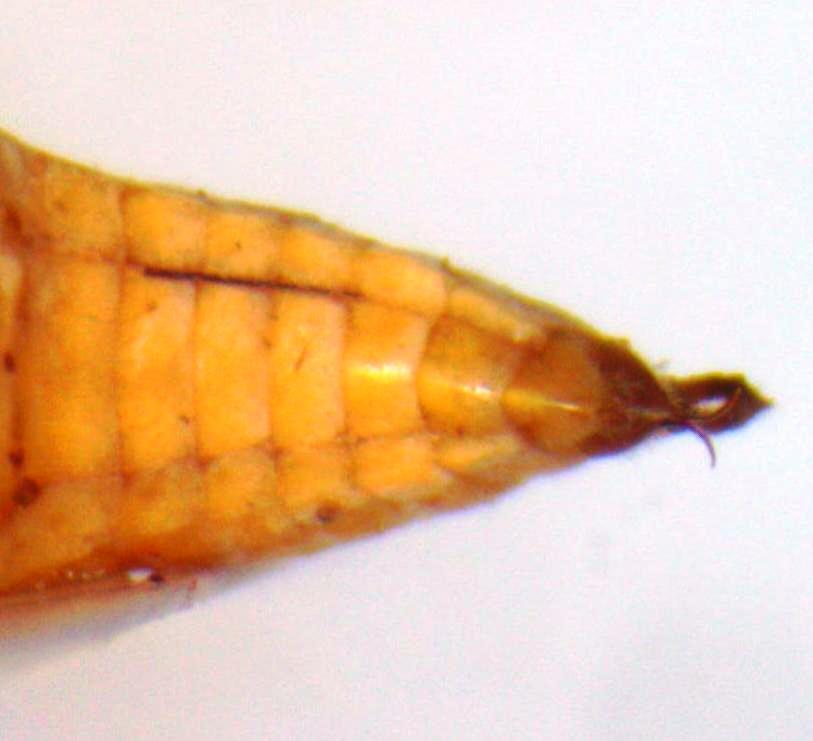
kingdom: Animalia
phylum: Arthropoda
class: Insecta
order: Hemiptera
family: Membracidae
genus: Stictolobus
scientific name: Stictolobus minor
